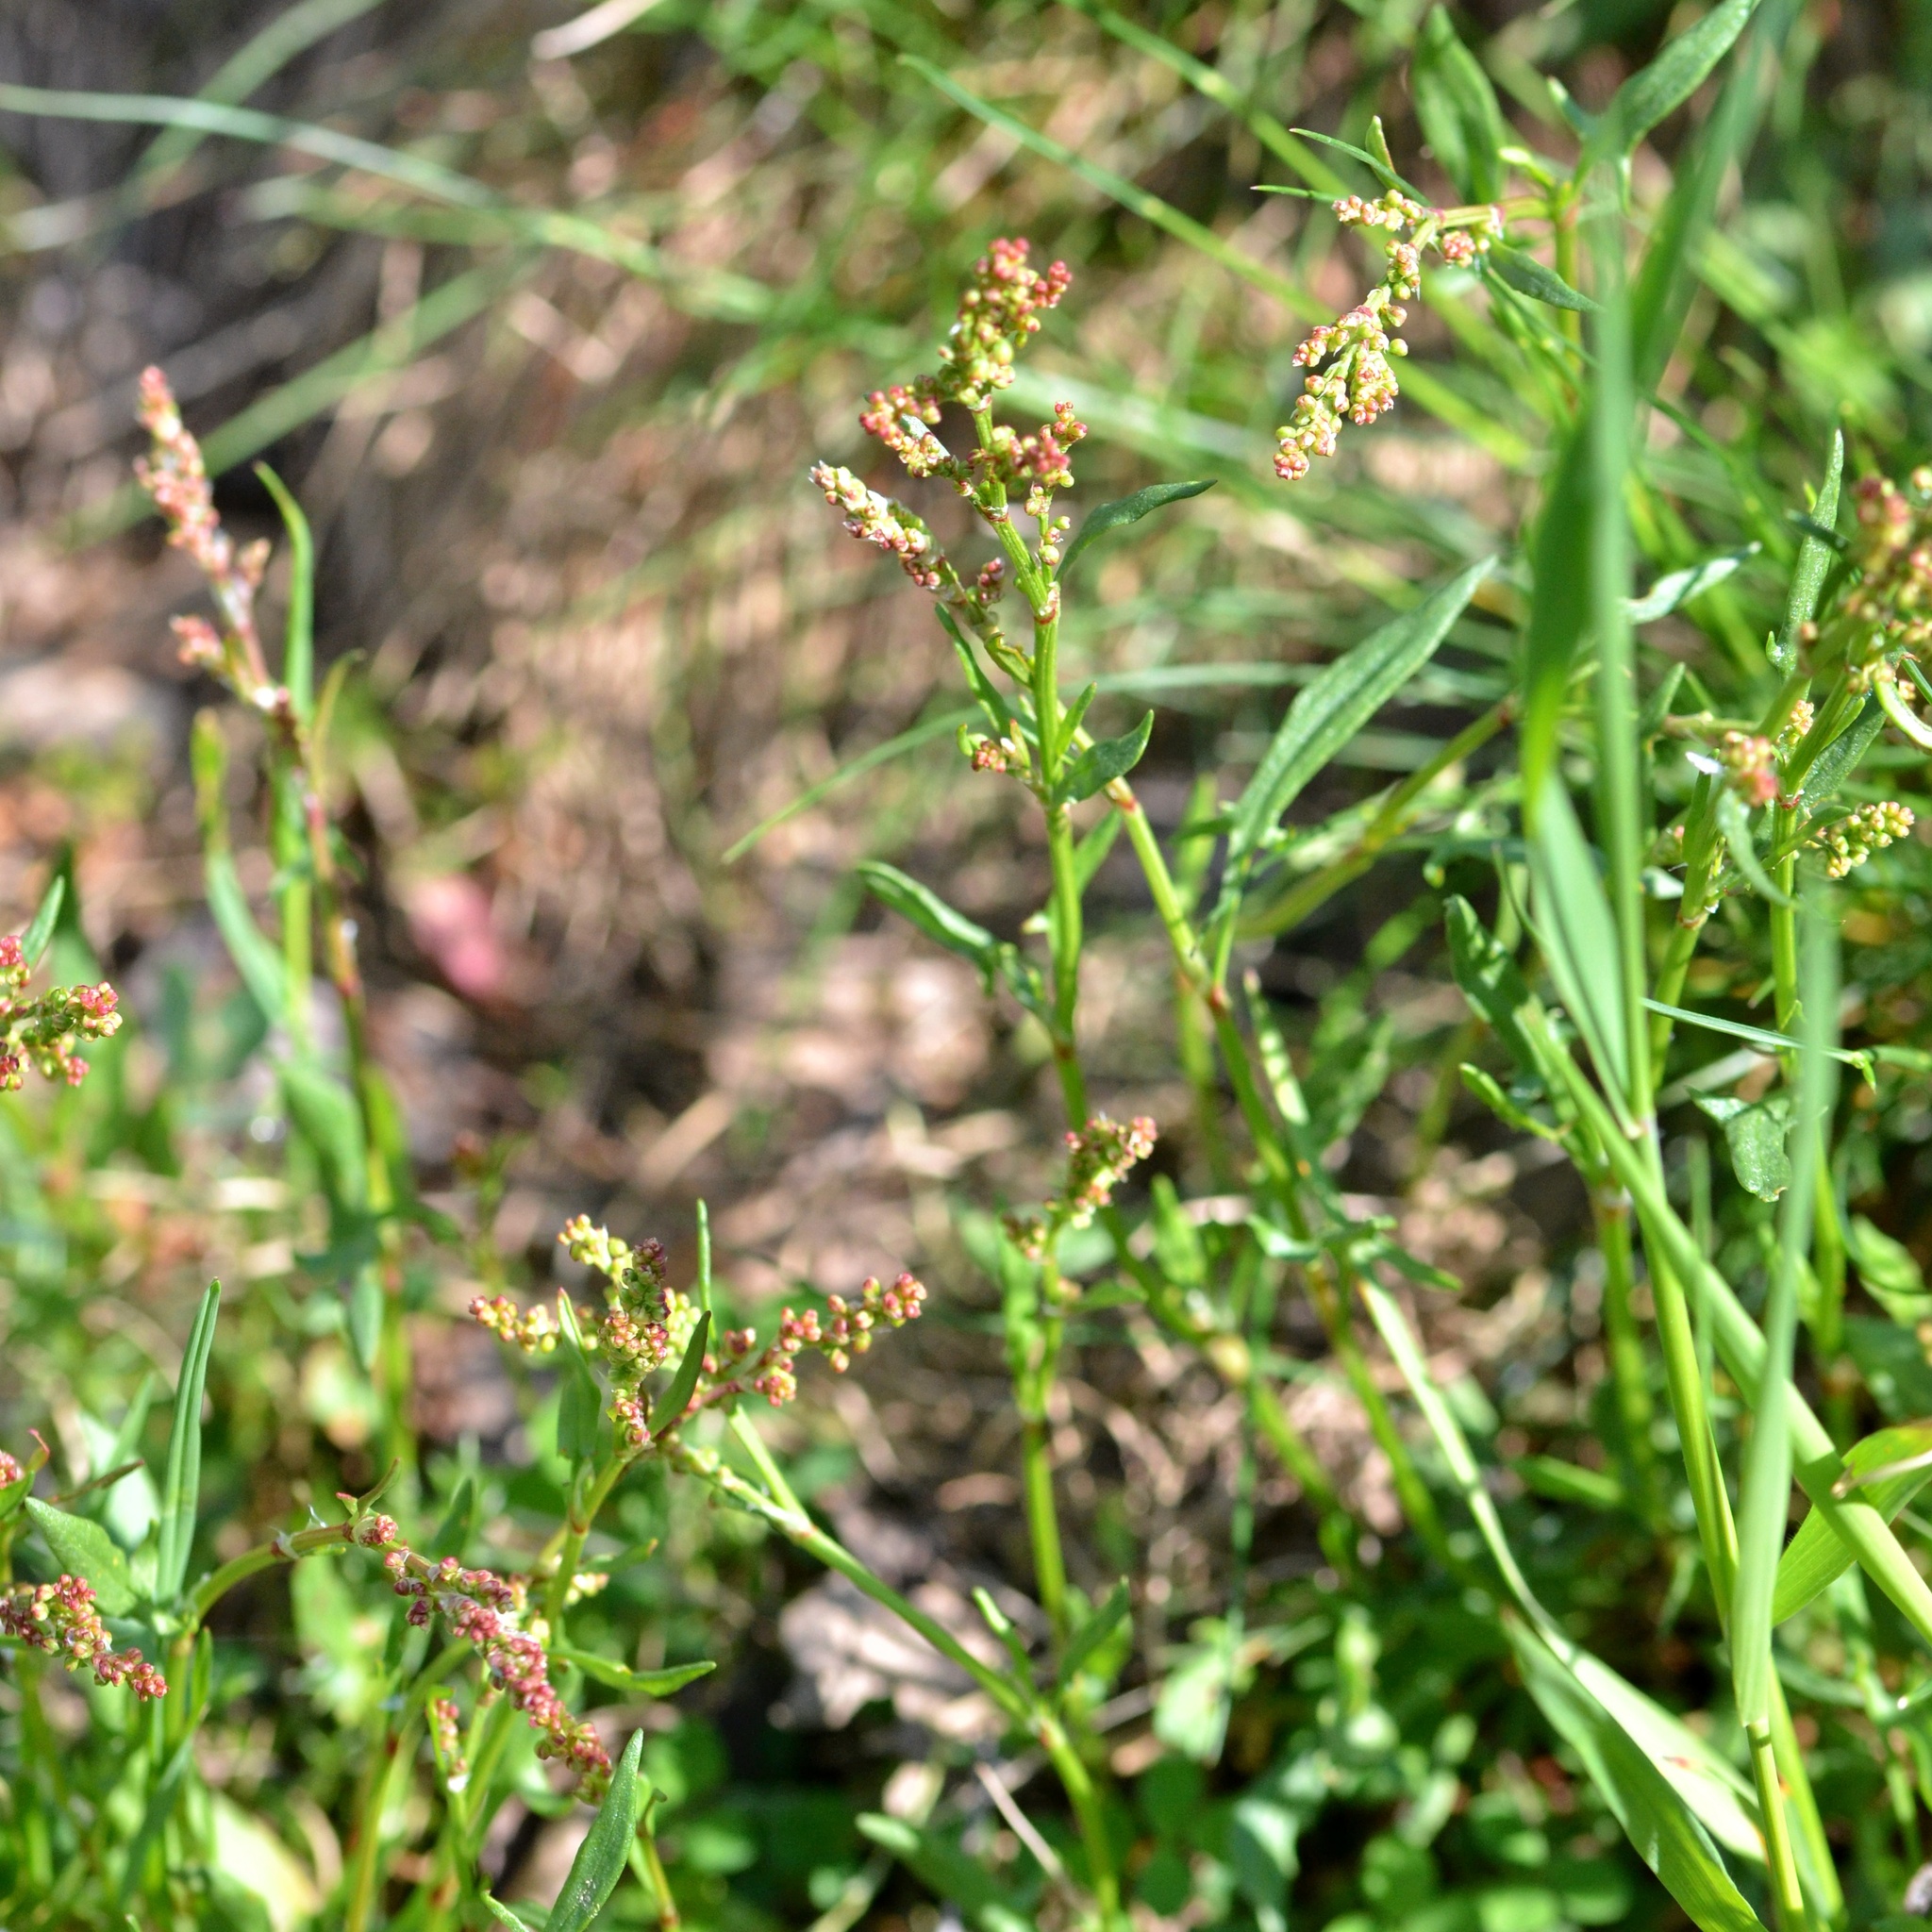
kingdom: Plantae
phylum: Tracheophyta
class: Magnoliopsida
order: Caryophyllales
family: Polygonaceae
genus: Rumex
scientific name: Rumex acetosella
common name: Common sheep sorrel
